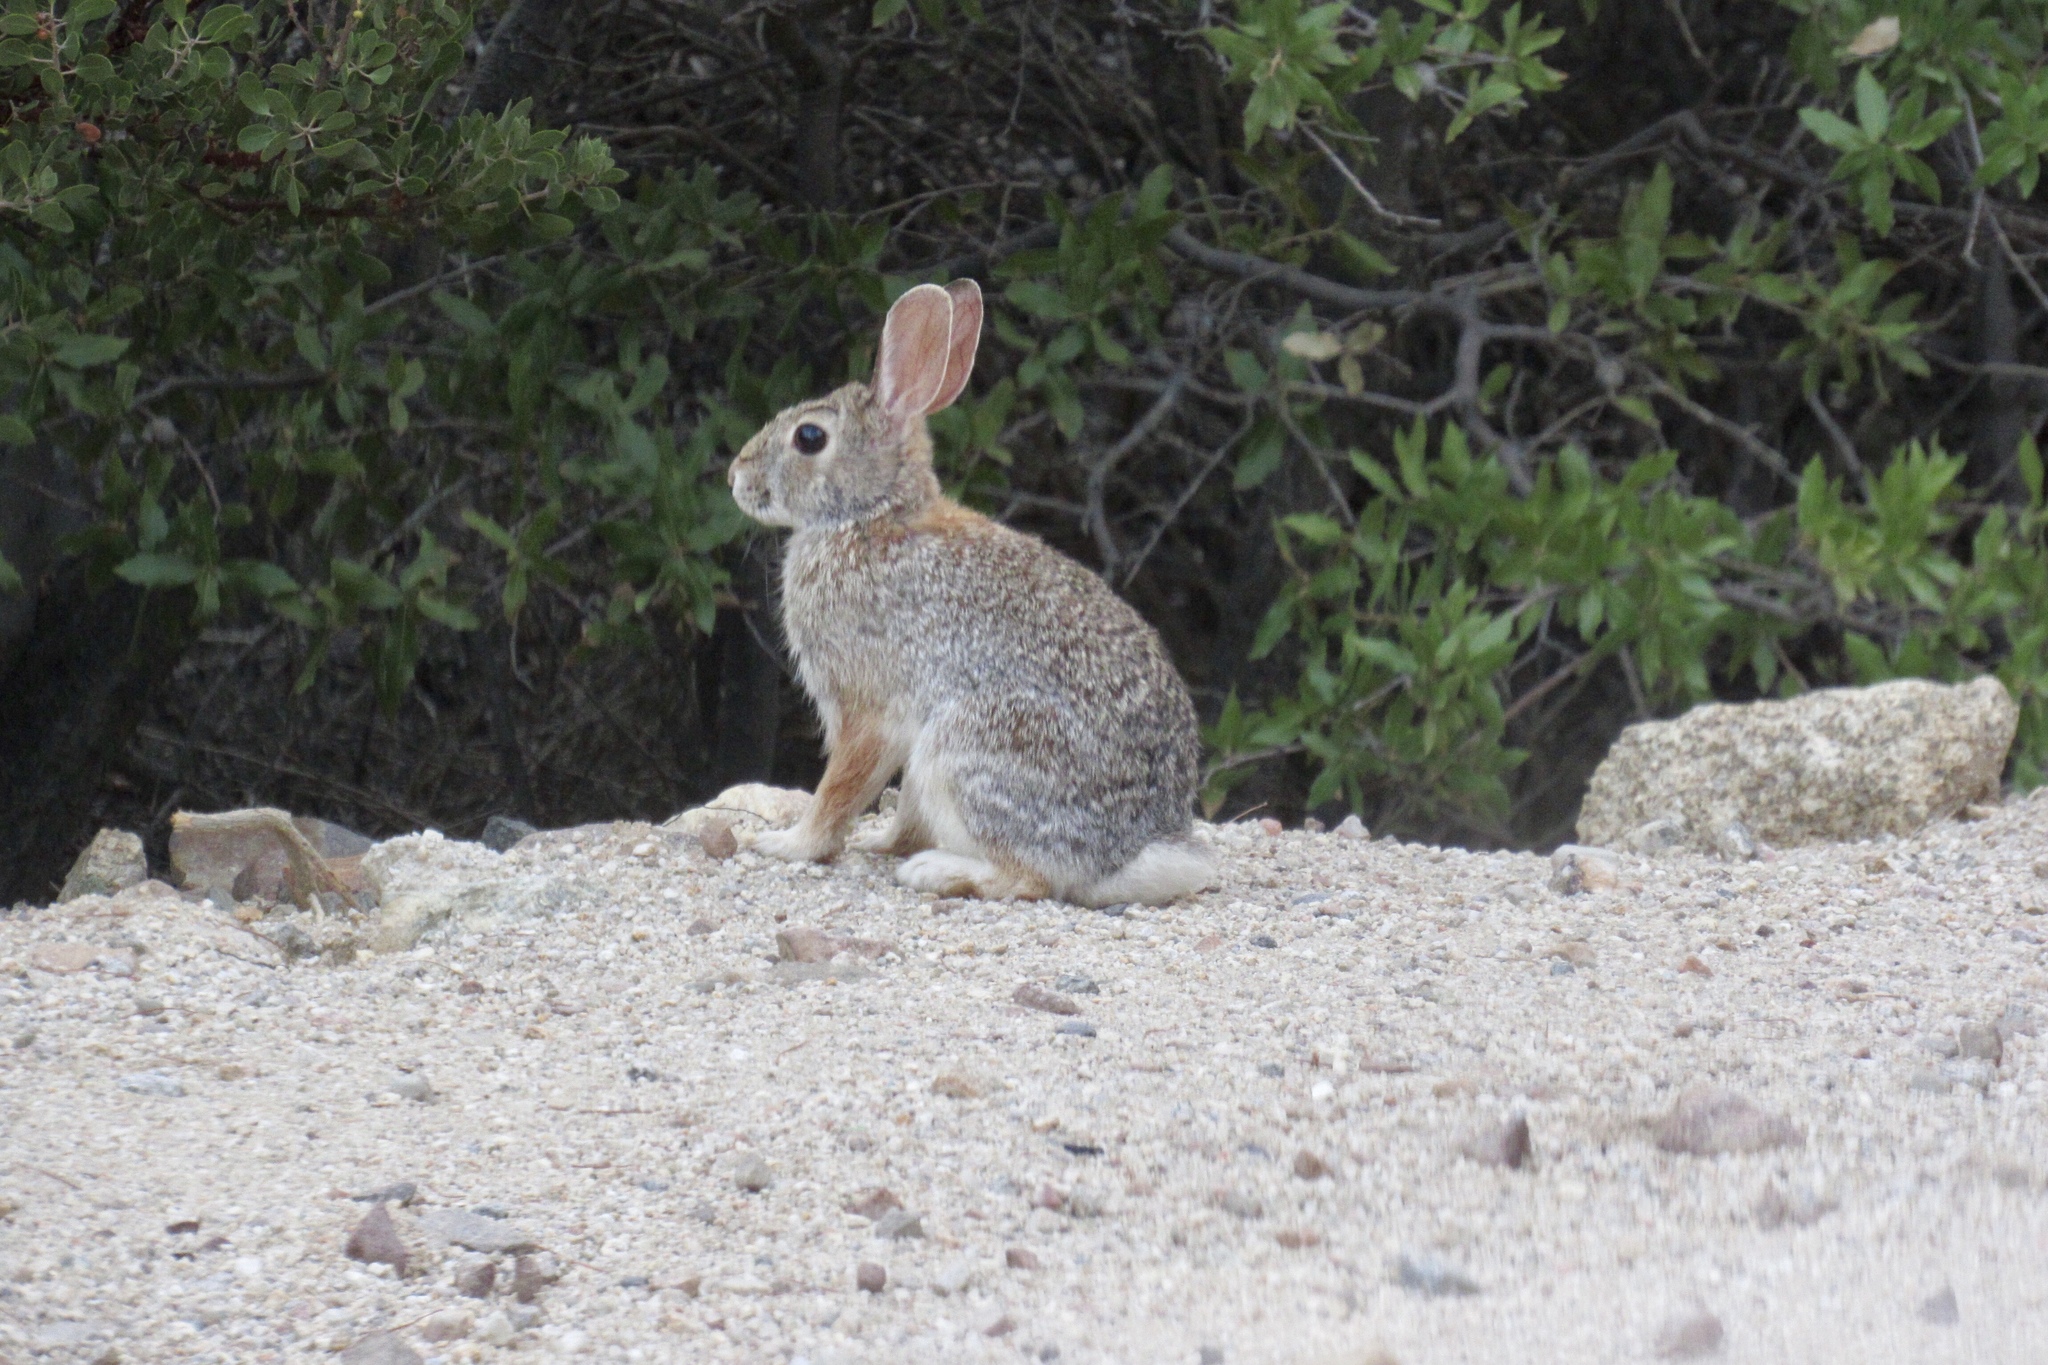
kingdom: Animalia
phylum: Chordata
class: Mammalia
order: Lagomorpha
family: Leporidae
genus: Sylvilagus
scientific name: Sylvilagus audubonii
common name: Desert cottontail
